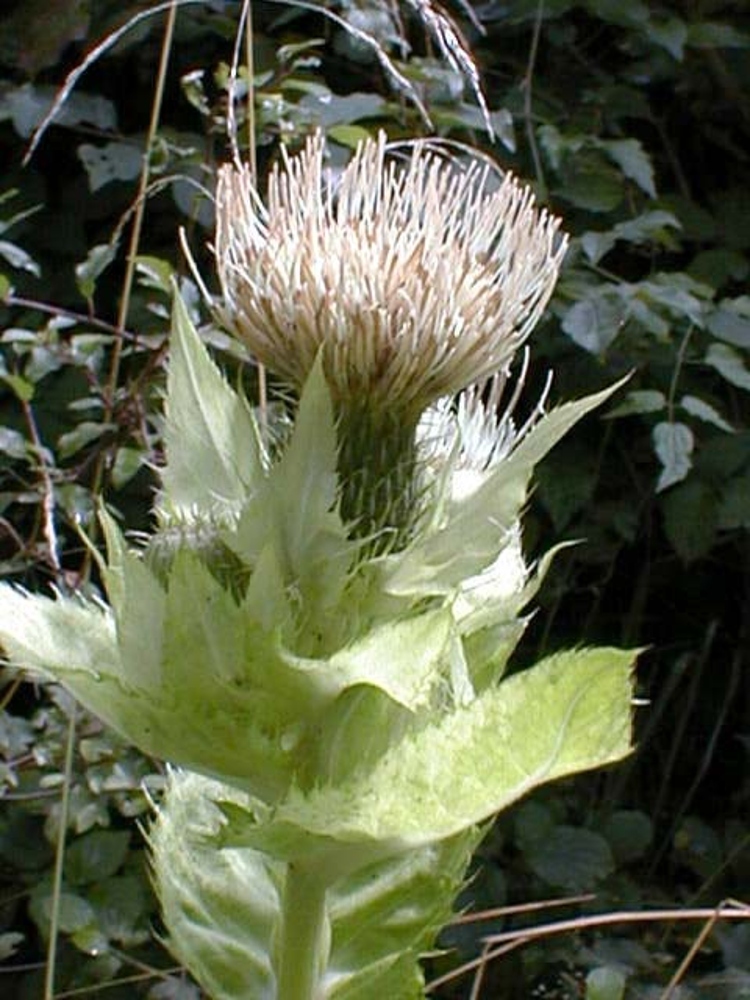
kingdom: Plantae
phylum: Tracheophyta
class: Magnoliopsida
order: Asterales
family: Asteraceae
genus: Cirsium
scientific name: Cirsium oleraceum
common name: Cabbage thistle
